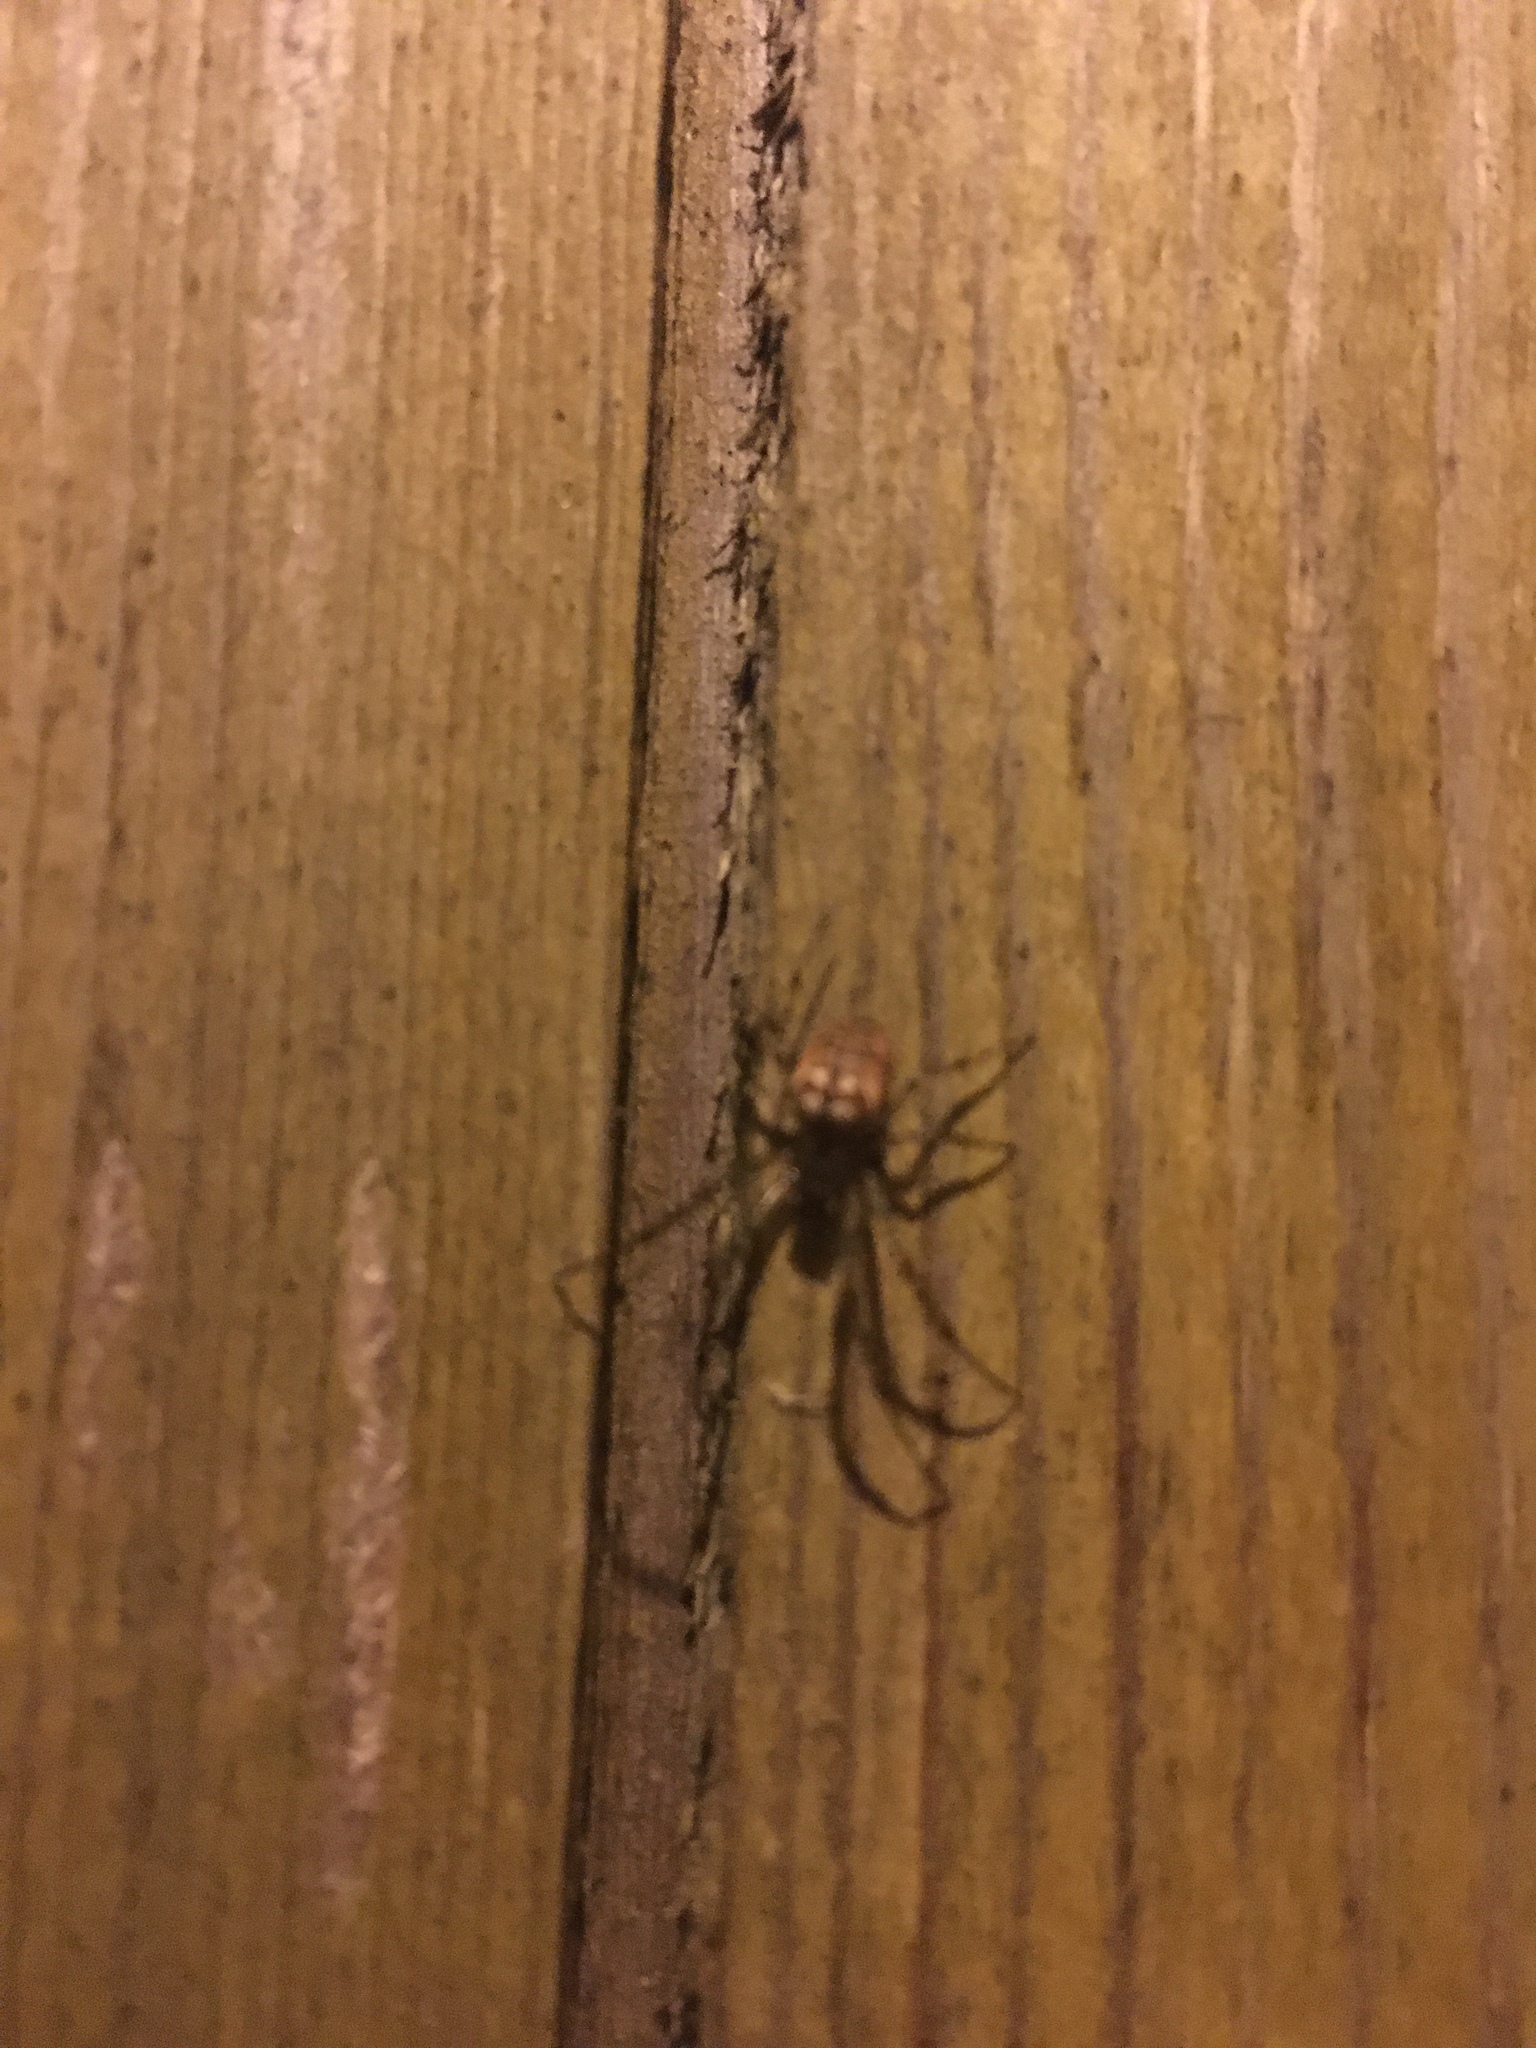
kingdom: Animalia
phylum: Arthropoda
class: Arachnida
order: Araneae
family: Tetragnathidae
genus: Metellina
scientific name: Metellina
